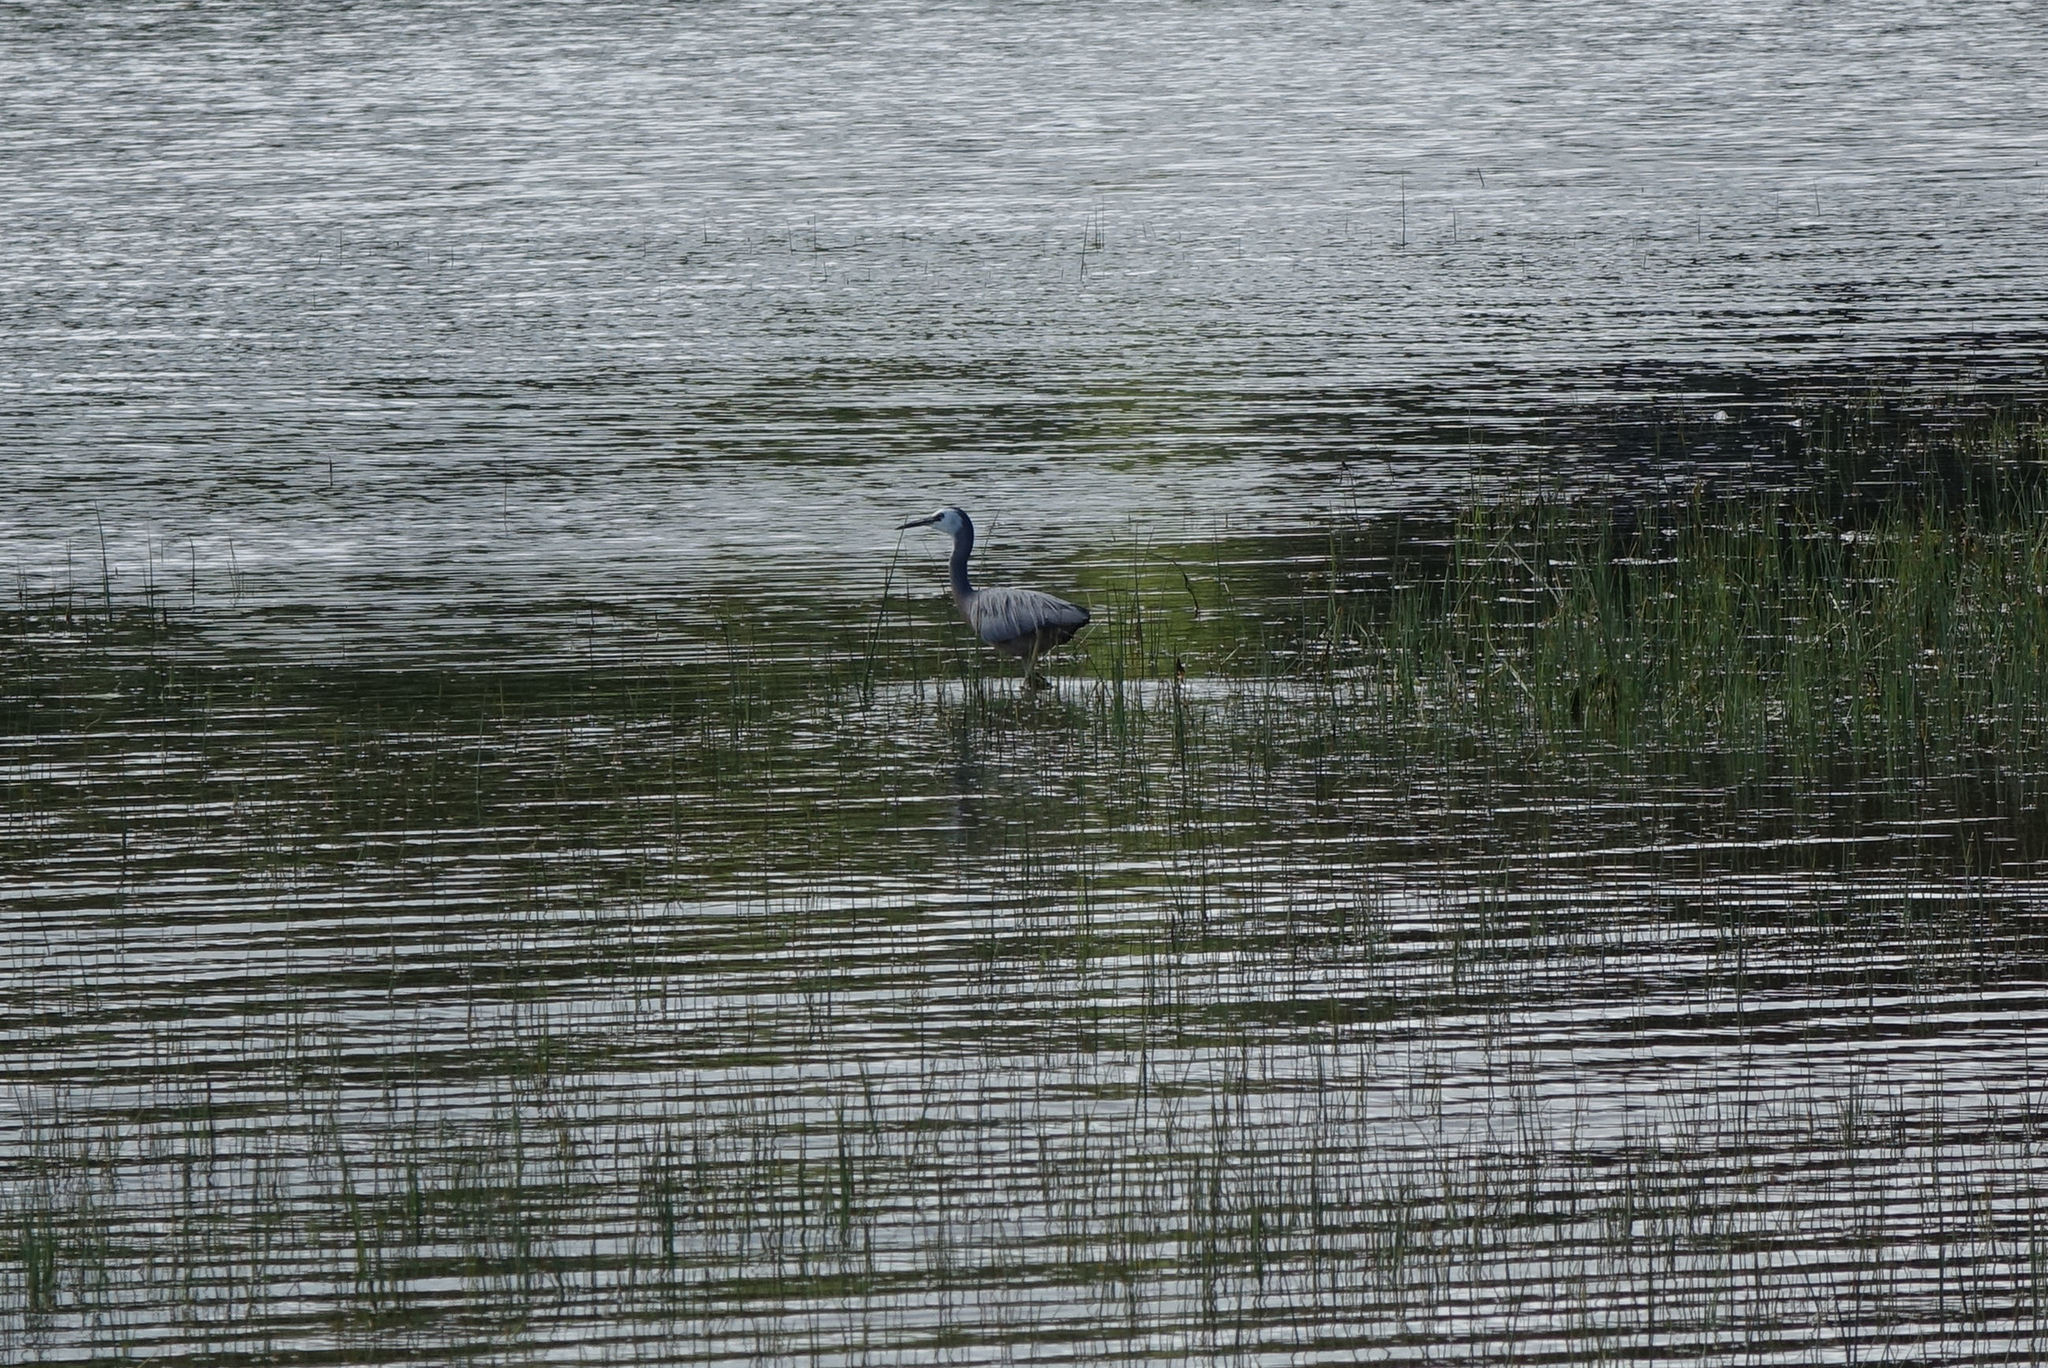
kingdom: Animalia
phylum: Chordata
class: Aves
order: Pelecaniformes
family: Ardeidae
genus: Egretta
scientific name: Egretta novaehollandiae
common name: White-faced heron
